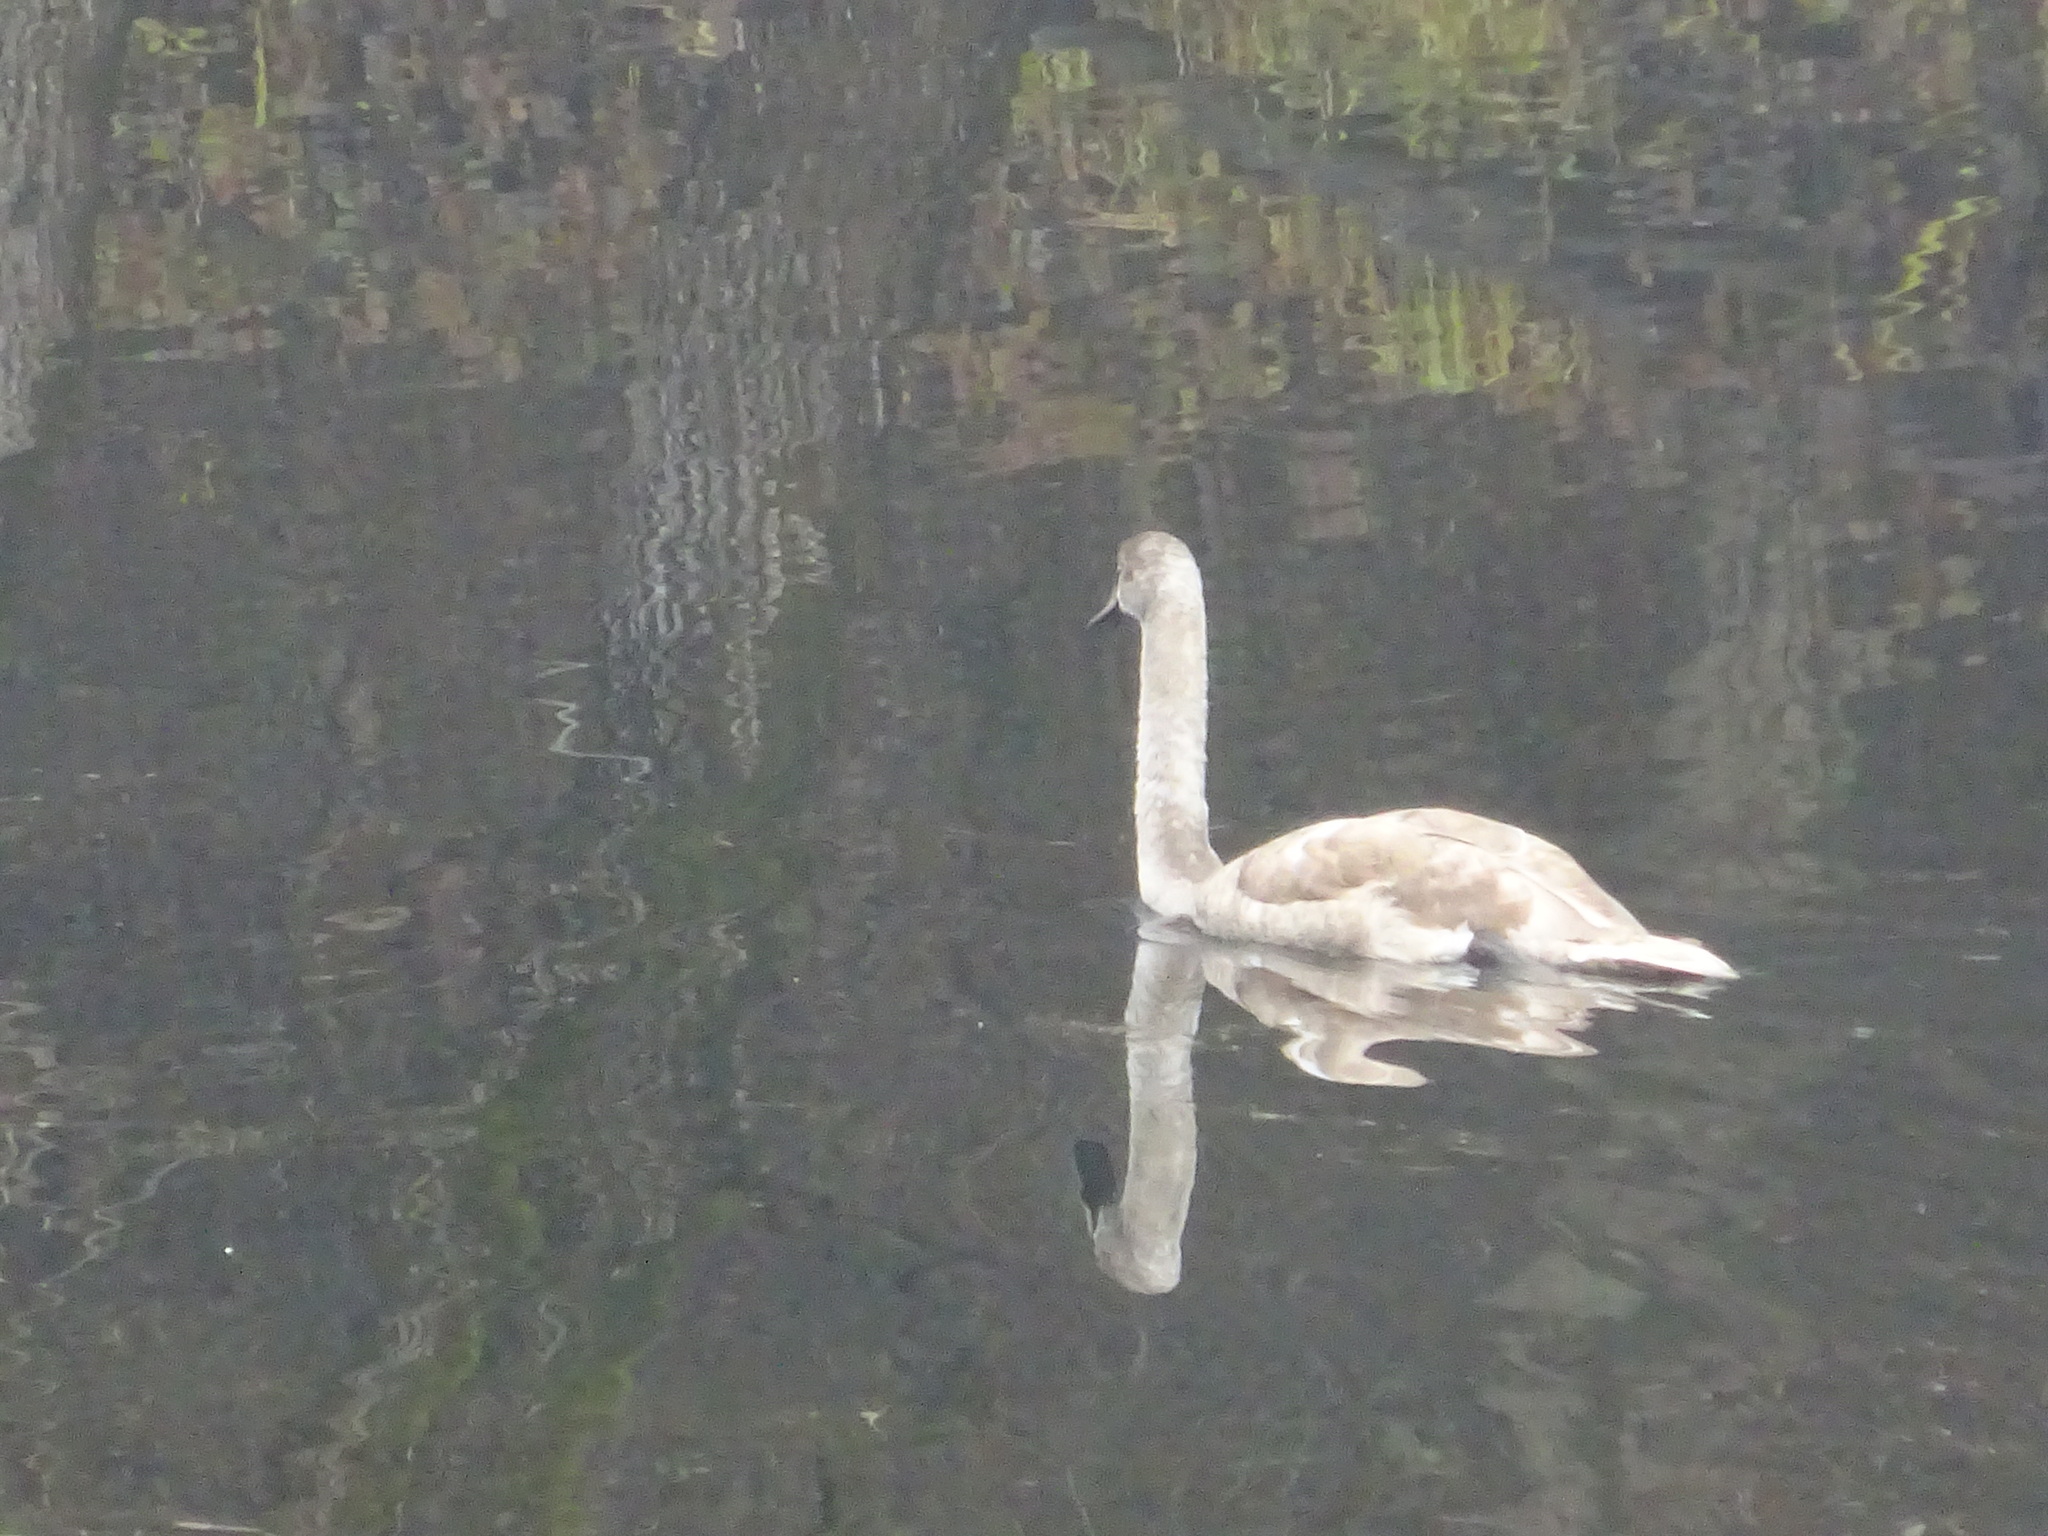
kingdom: Animalia
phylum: Chordata
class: Aves
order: Anseriformes
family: Anatidae
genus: Cygnus
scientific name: Cygnus olor
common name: Mute swan
